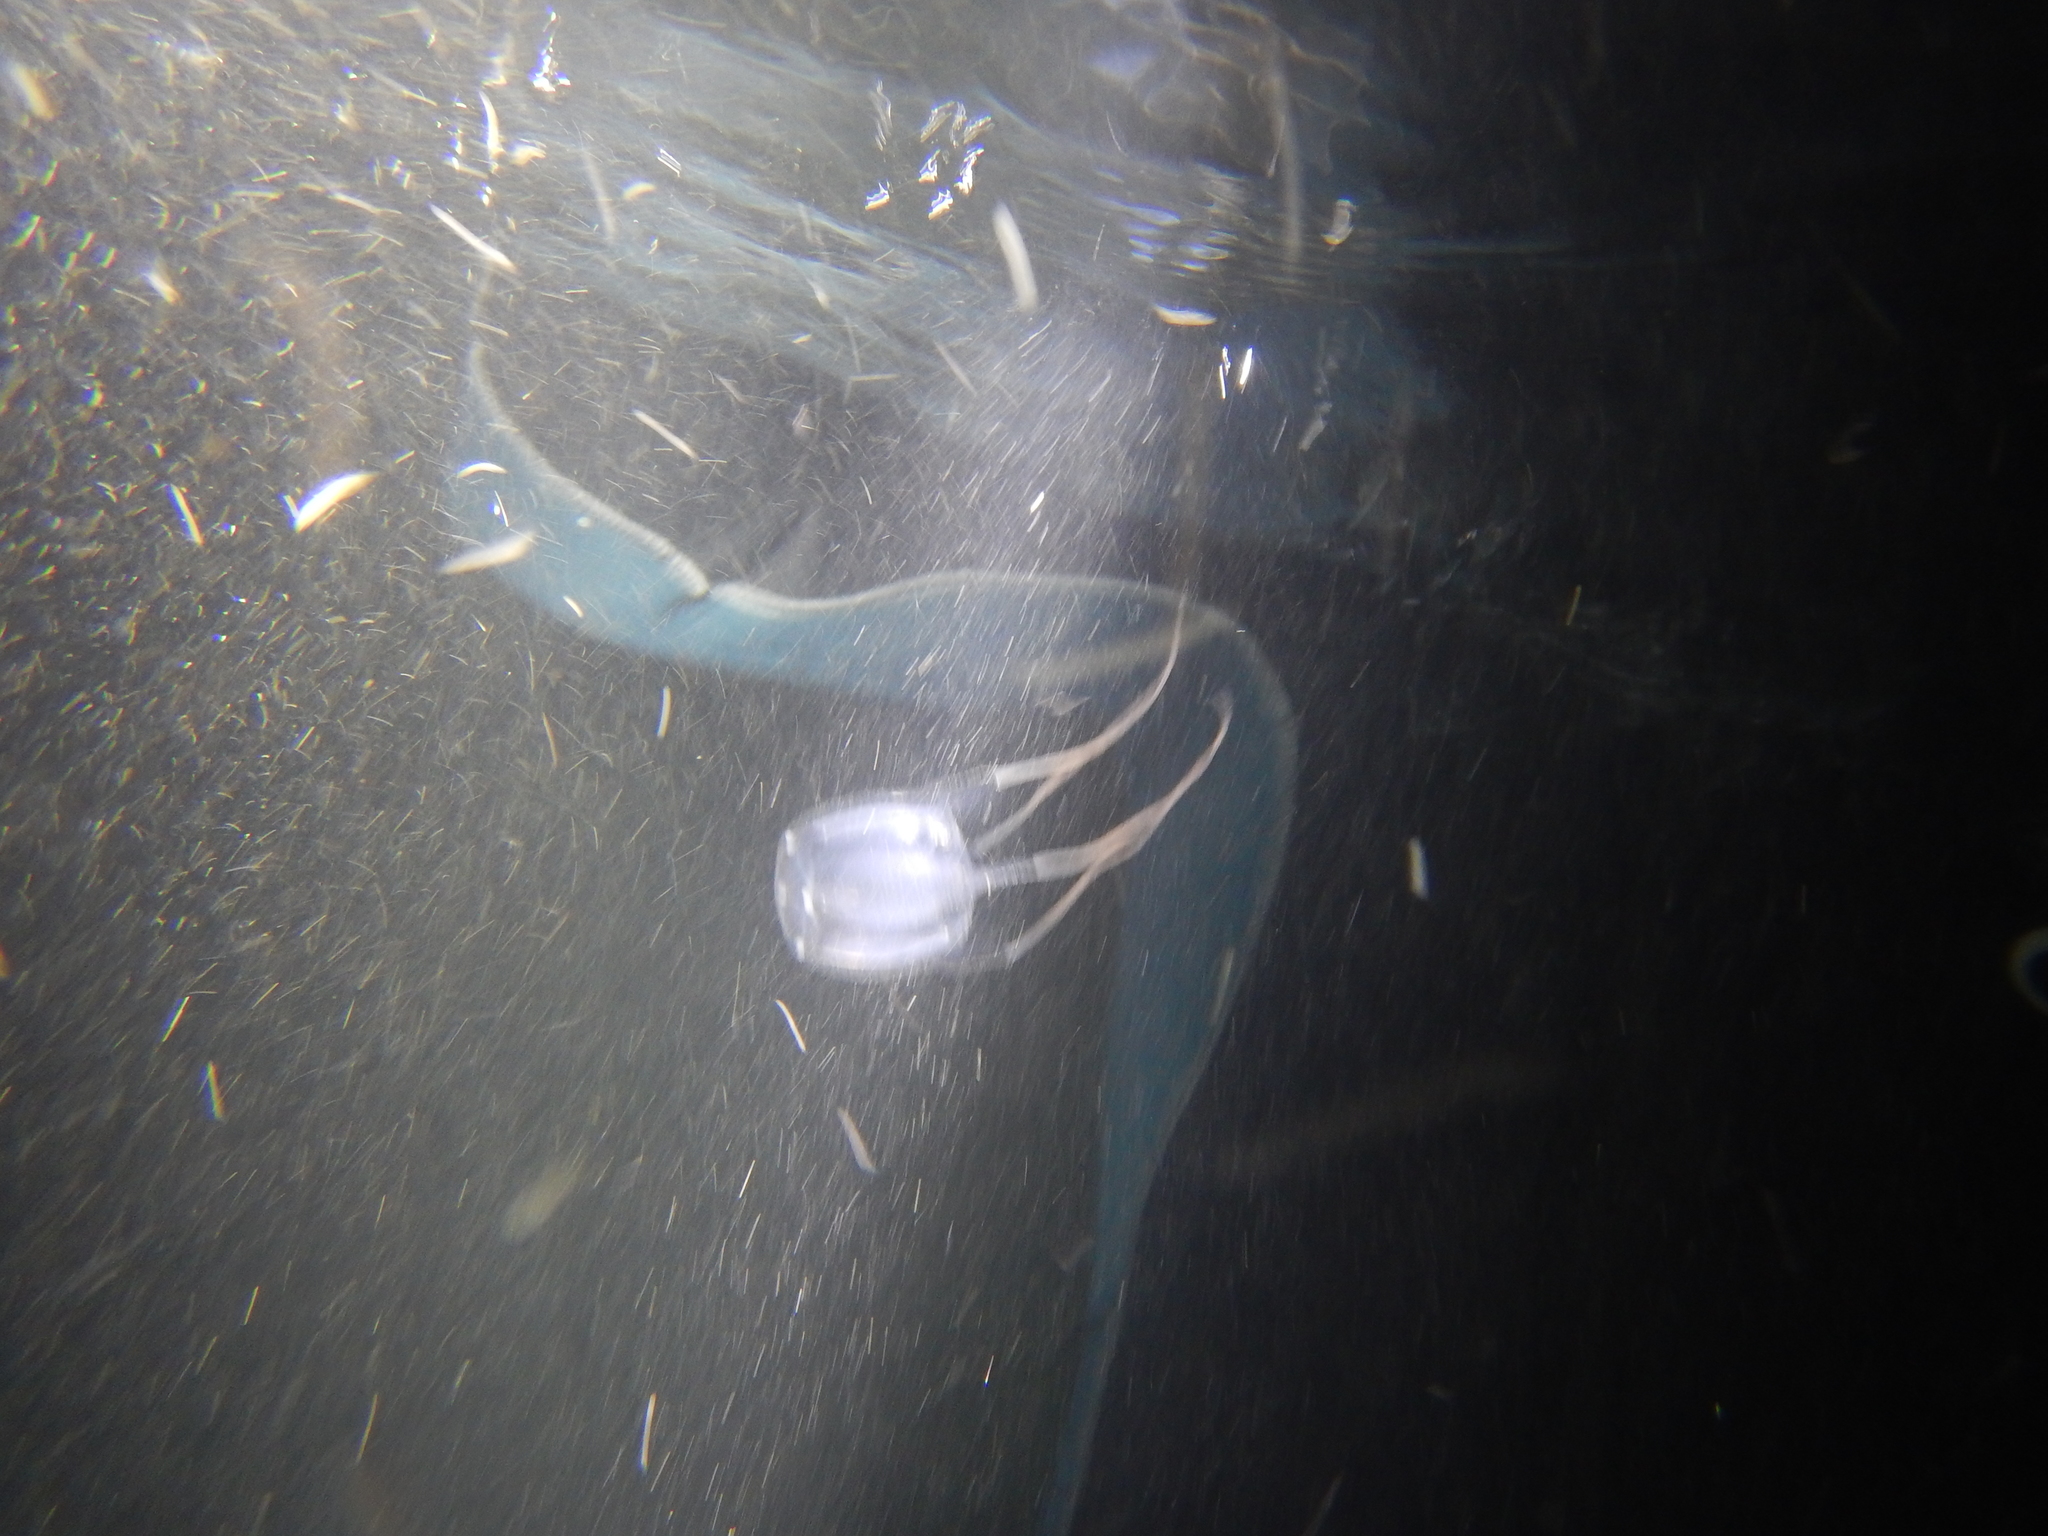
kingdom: Animalia
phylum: Cnidaria
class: Cubozoa
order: Carybdeida
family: Carybdeidae
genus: Carybdea
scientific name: Carybdea marsupialis
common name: Sea wasp
